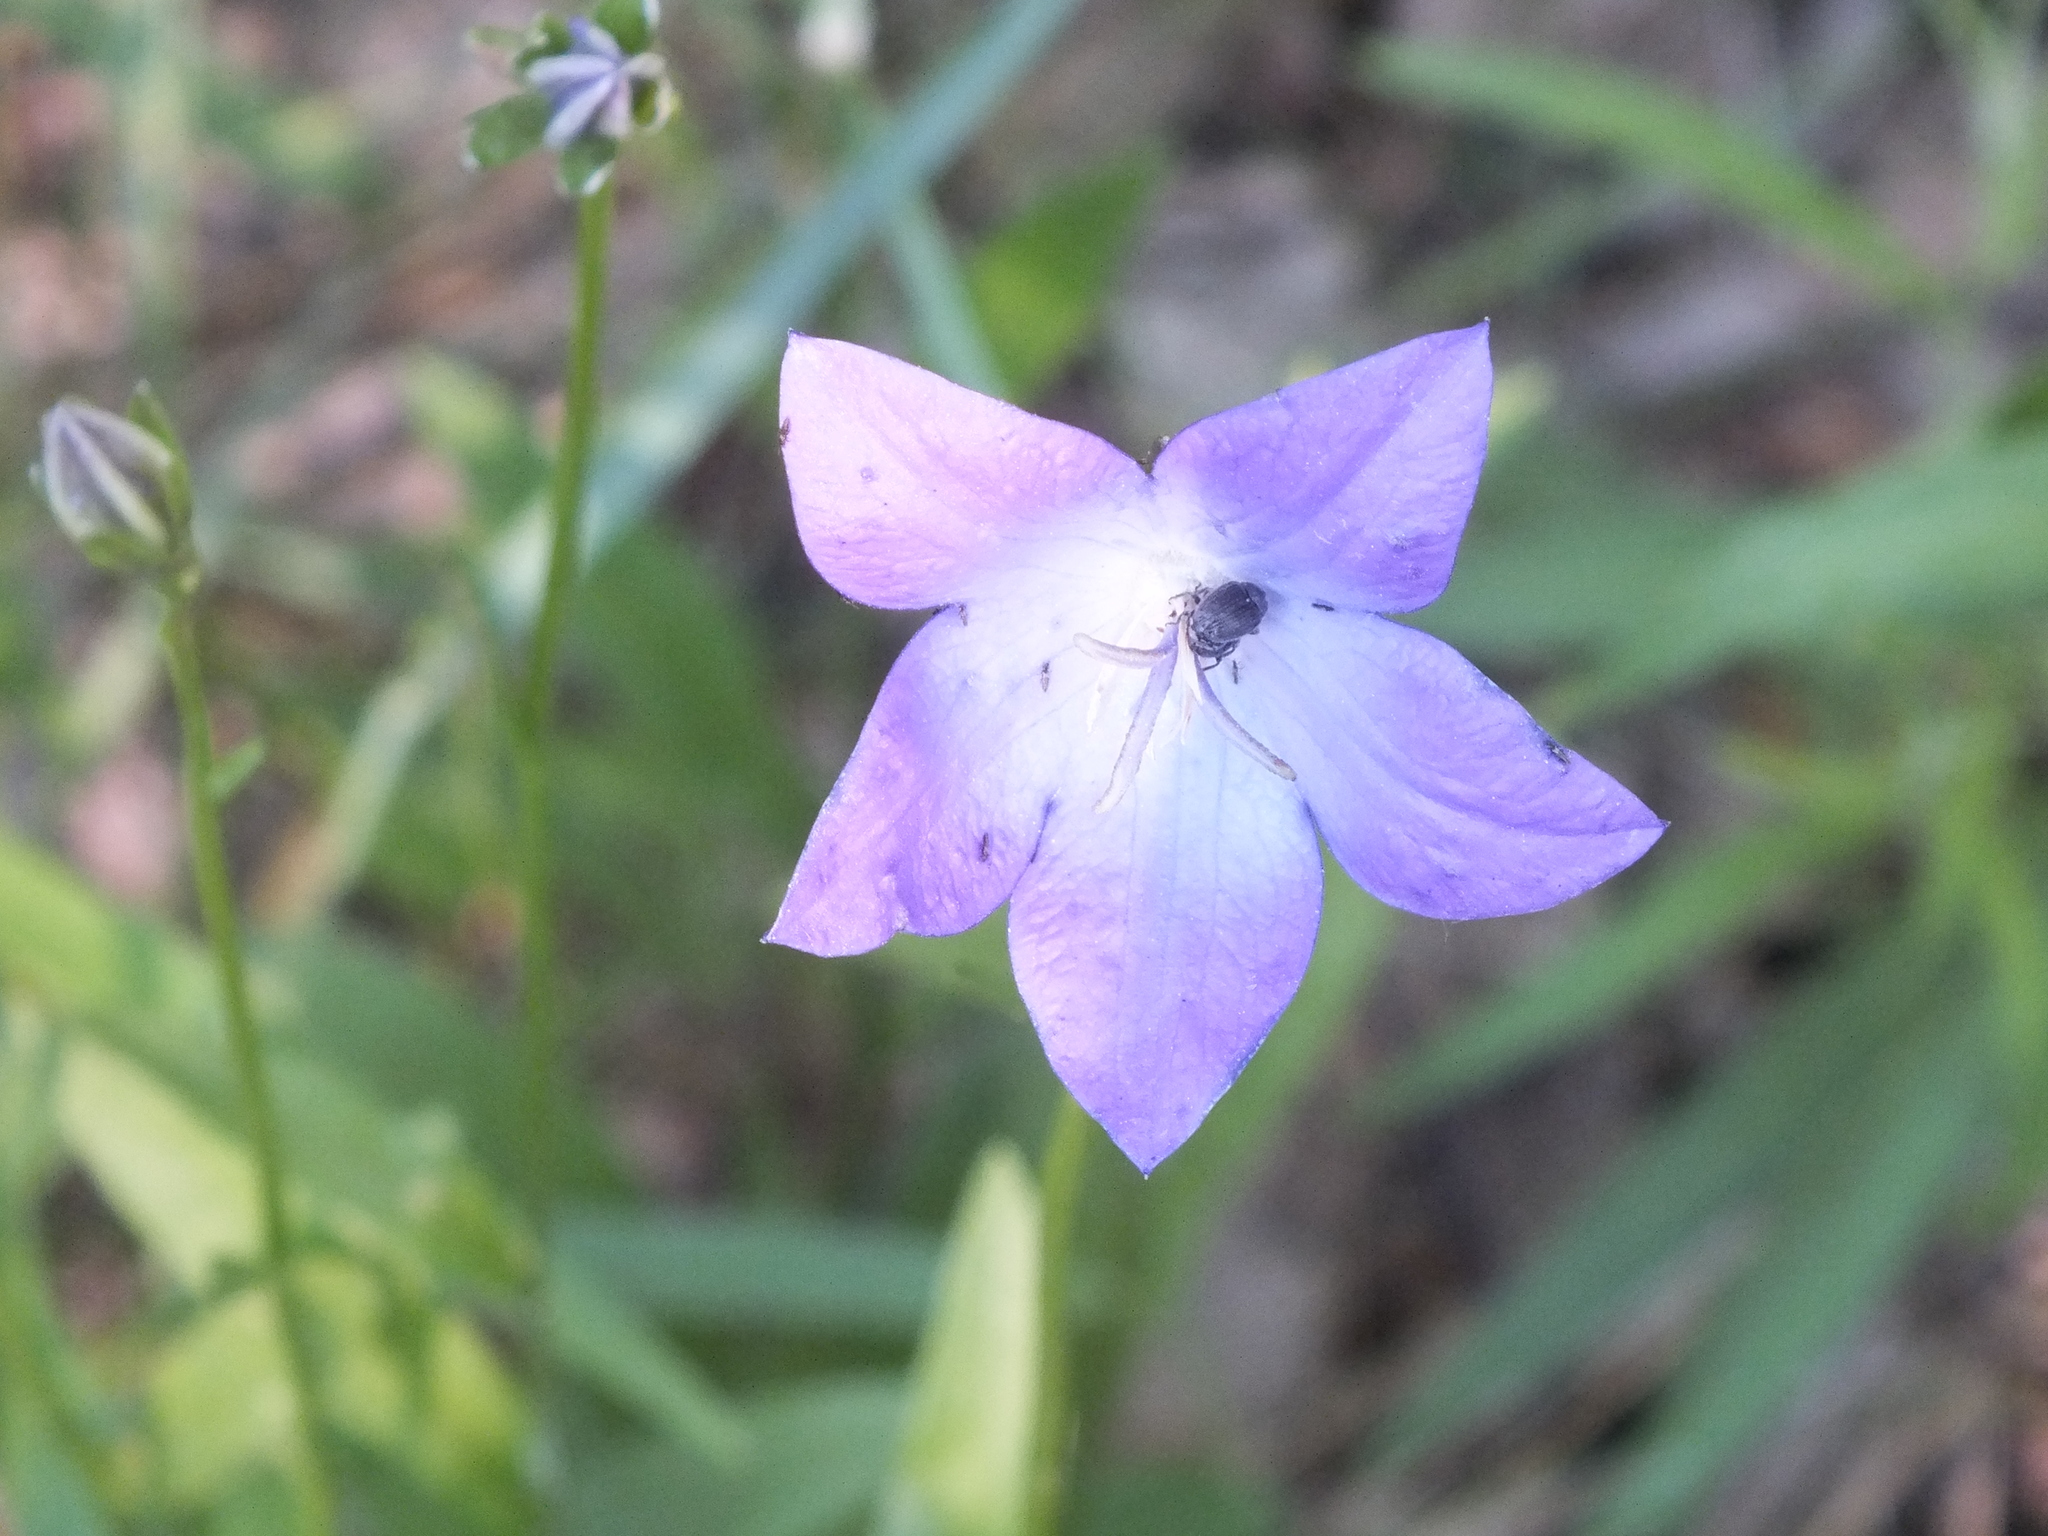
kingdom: Plantae
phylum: Tracheophyta
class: Magnoliopsida
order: Asterales
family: Campanulaceae
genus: Campanula
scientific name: Campanula stevenii
